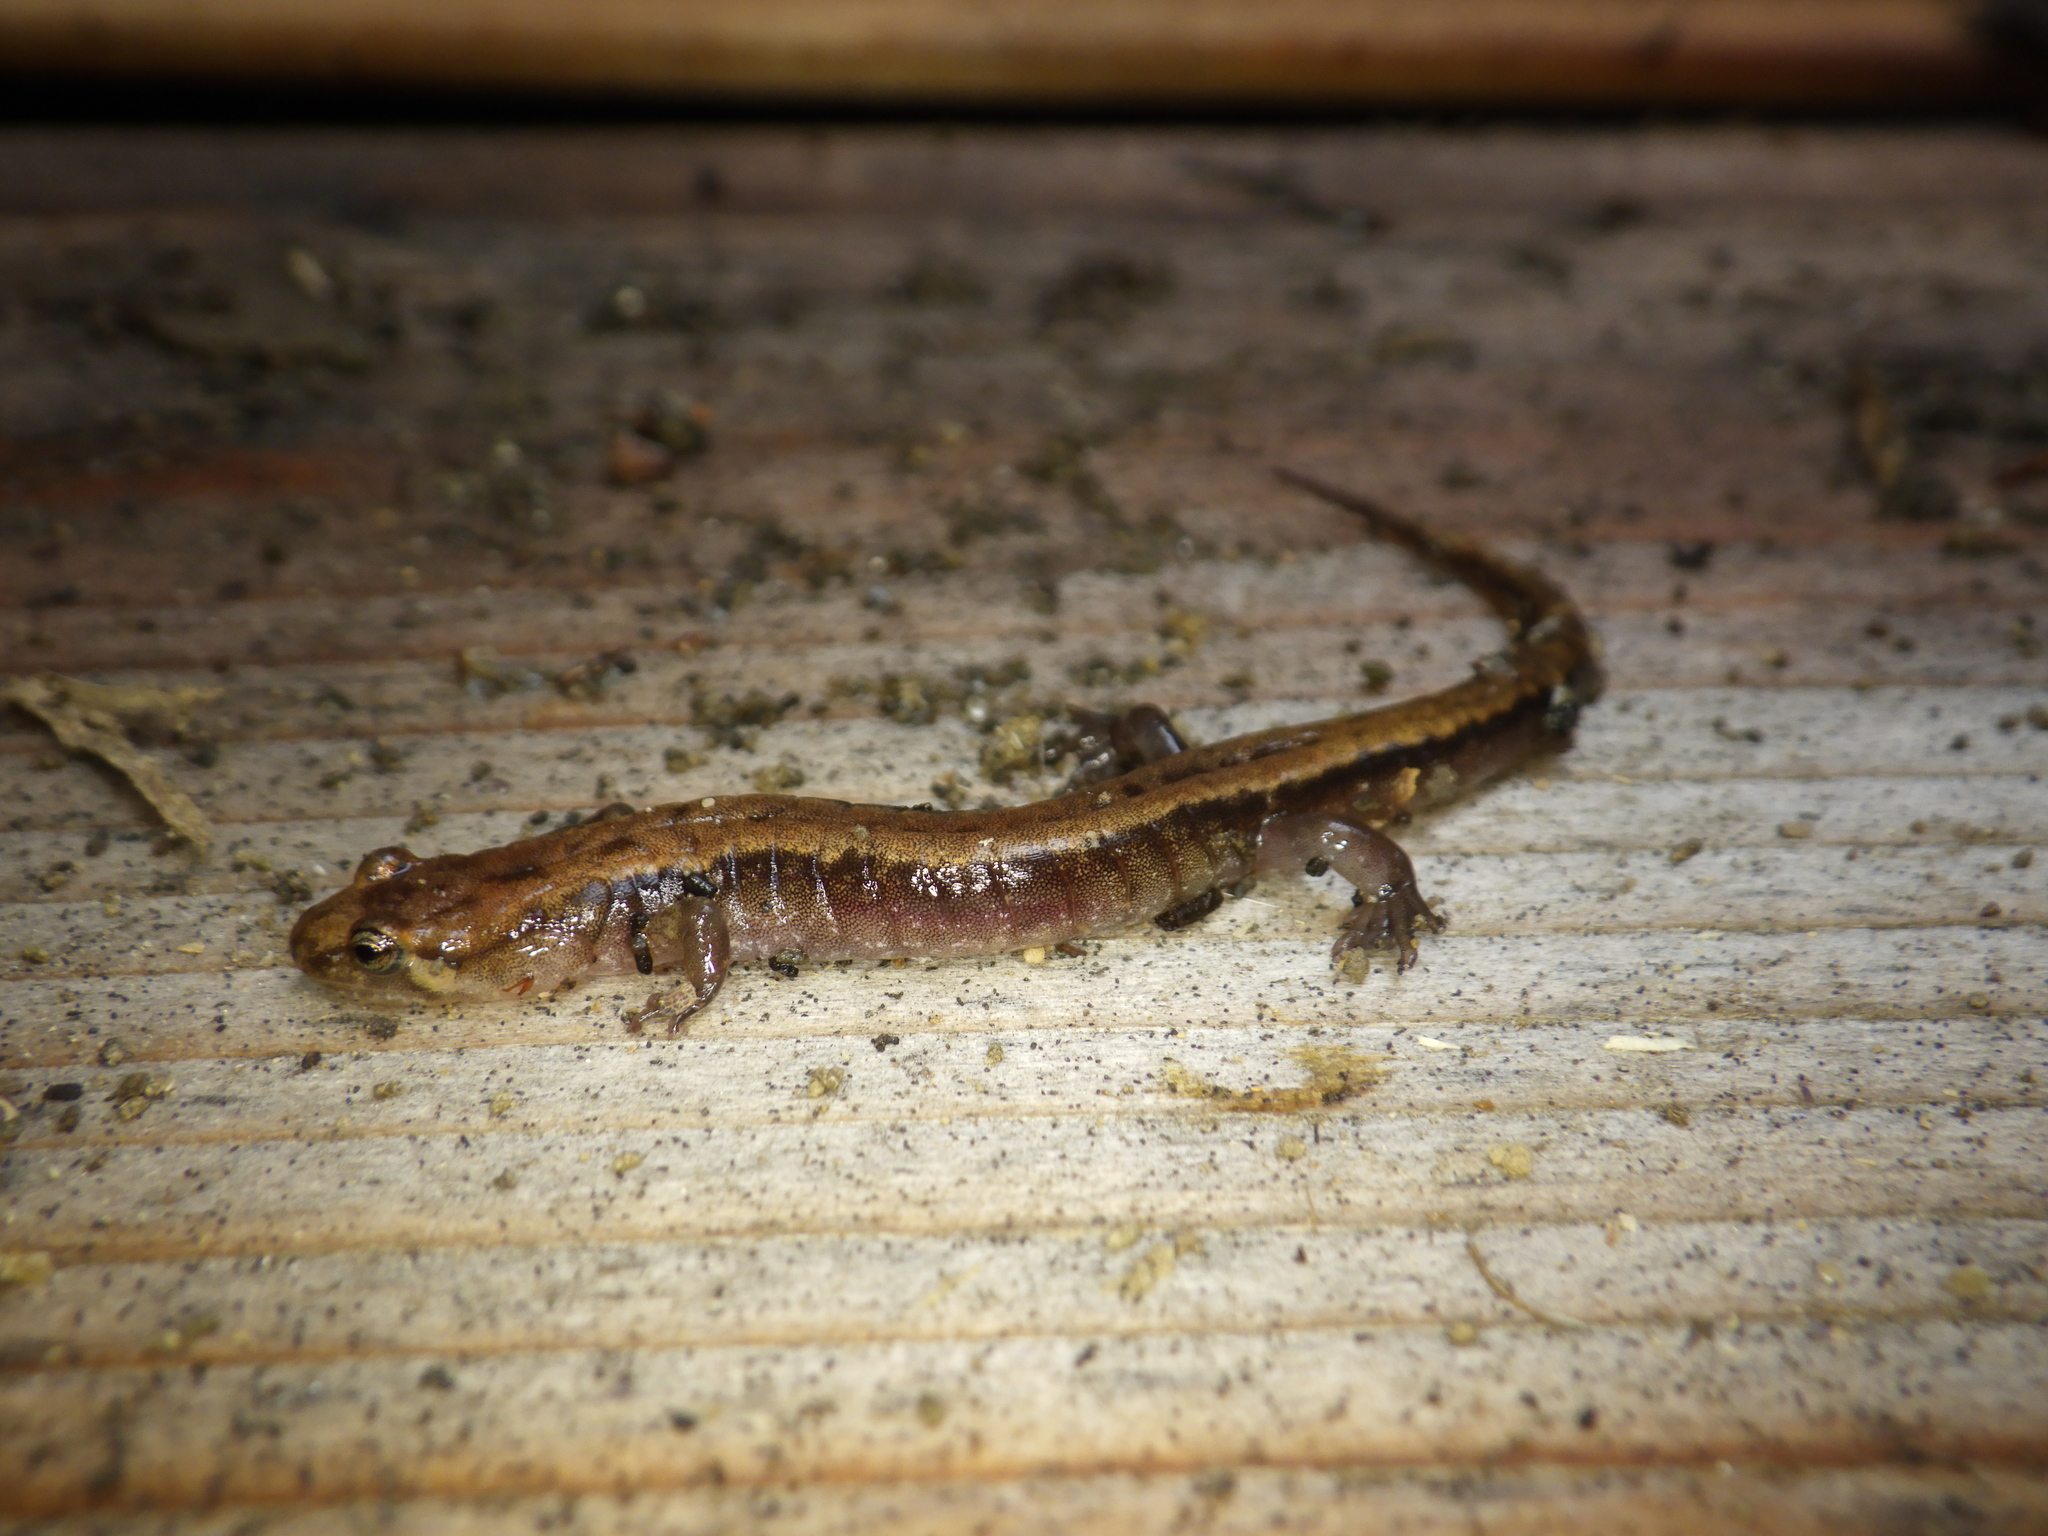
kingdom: Animalia
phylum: Chordata
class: Amphibia
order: Caudata
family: Plethodontidae
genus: Desmognathus
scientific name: Desmognathus ochrophaeus
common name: Allegheny mountain dusky salamander
